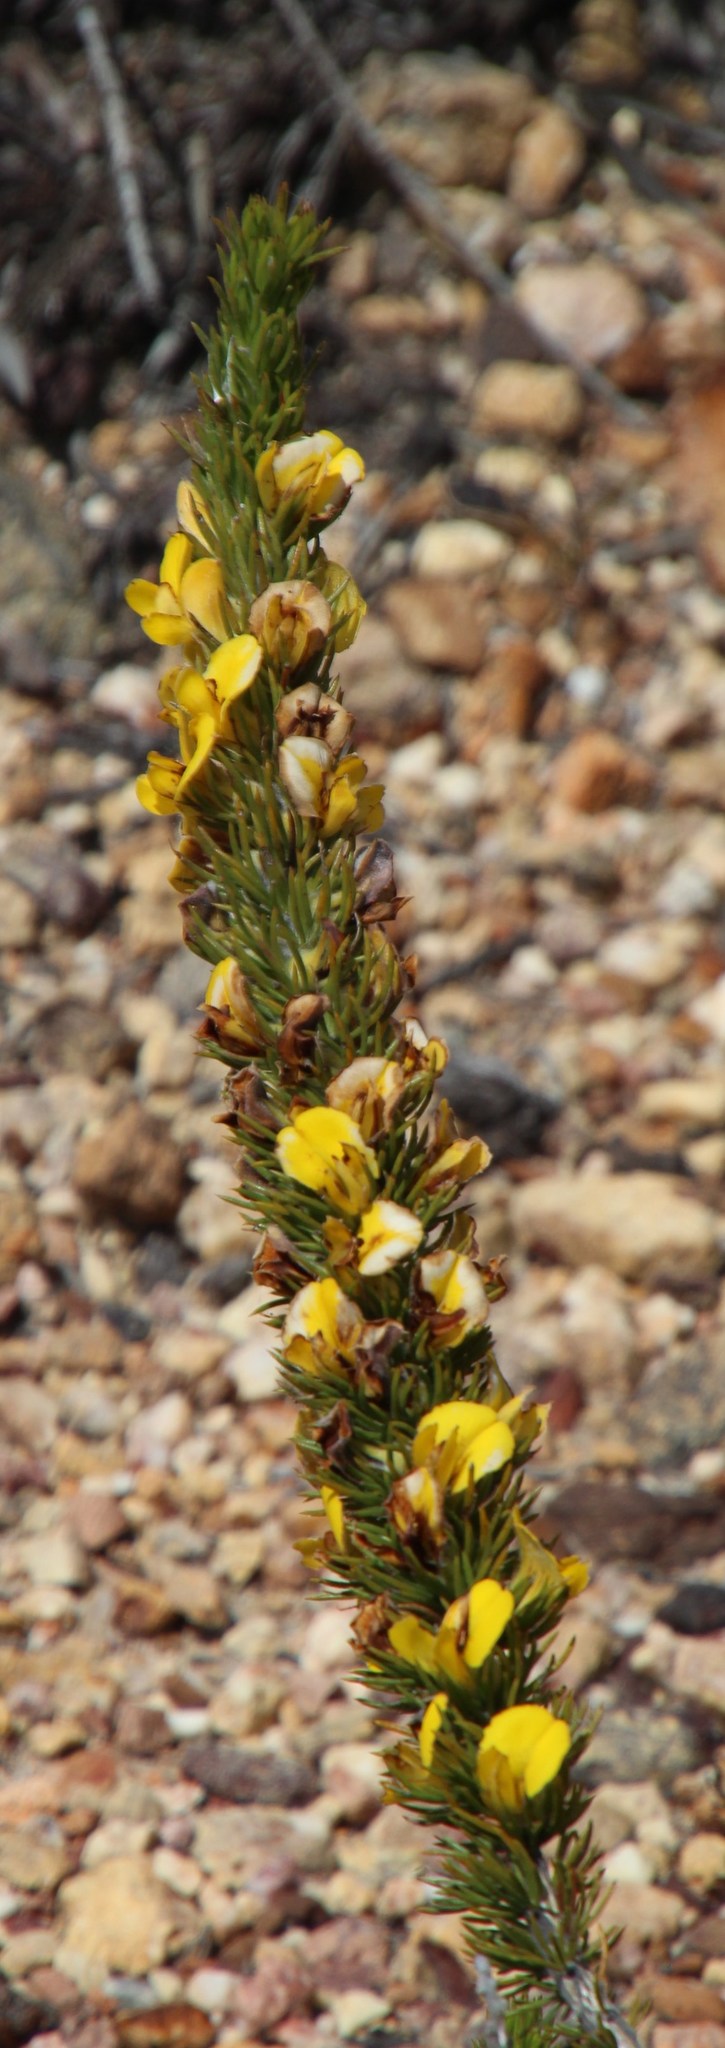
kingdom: Plantae
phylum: Tracheophyta
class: Magnoliopsida
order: Fabales
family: Fabaceae
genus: Aspalathus
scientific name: Aspalathus acanthes
